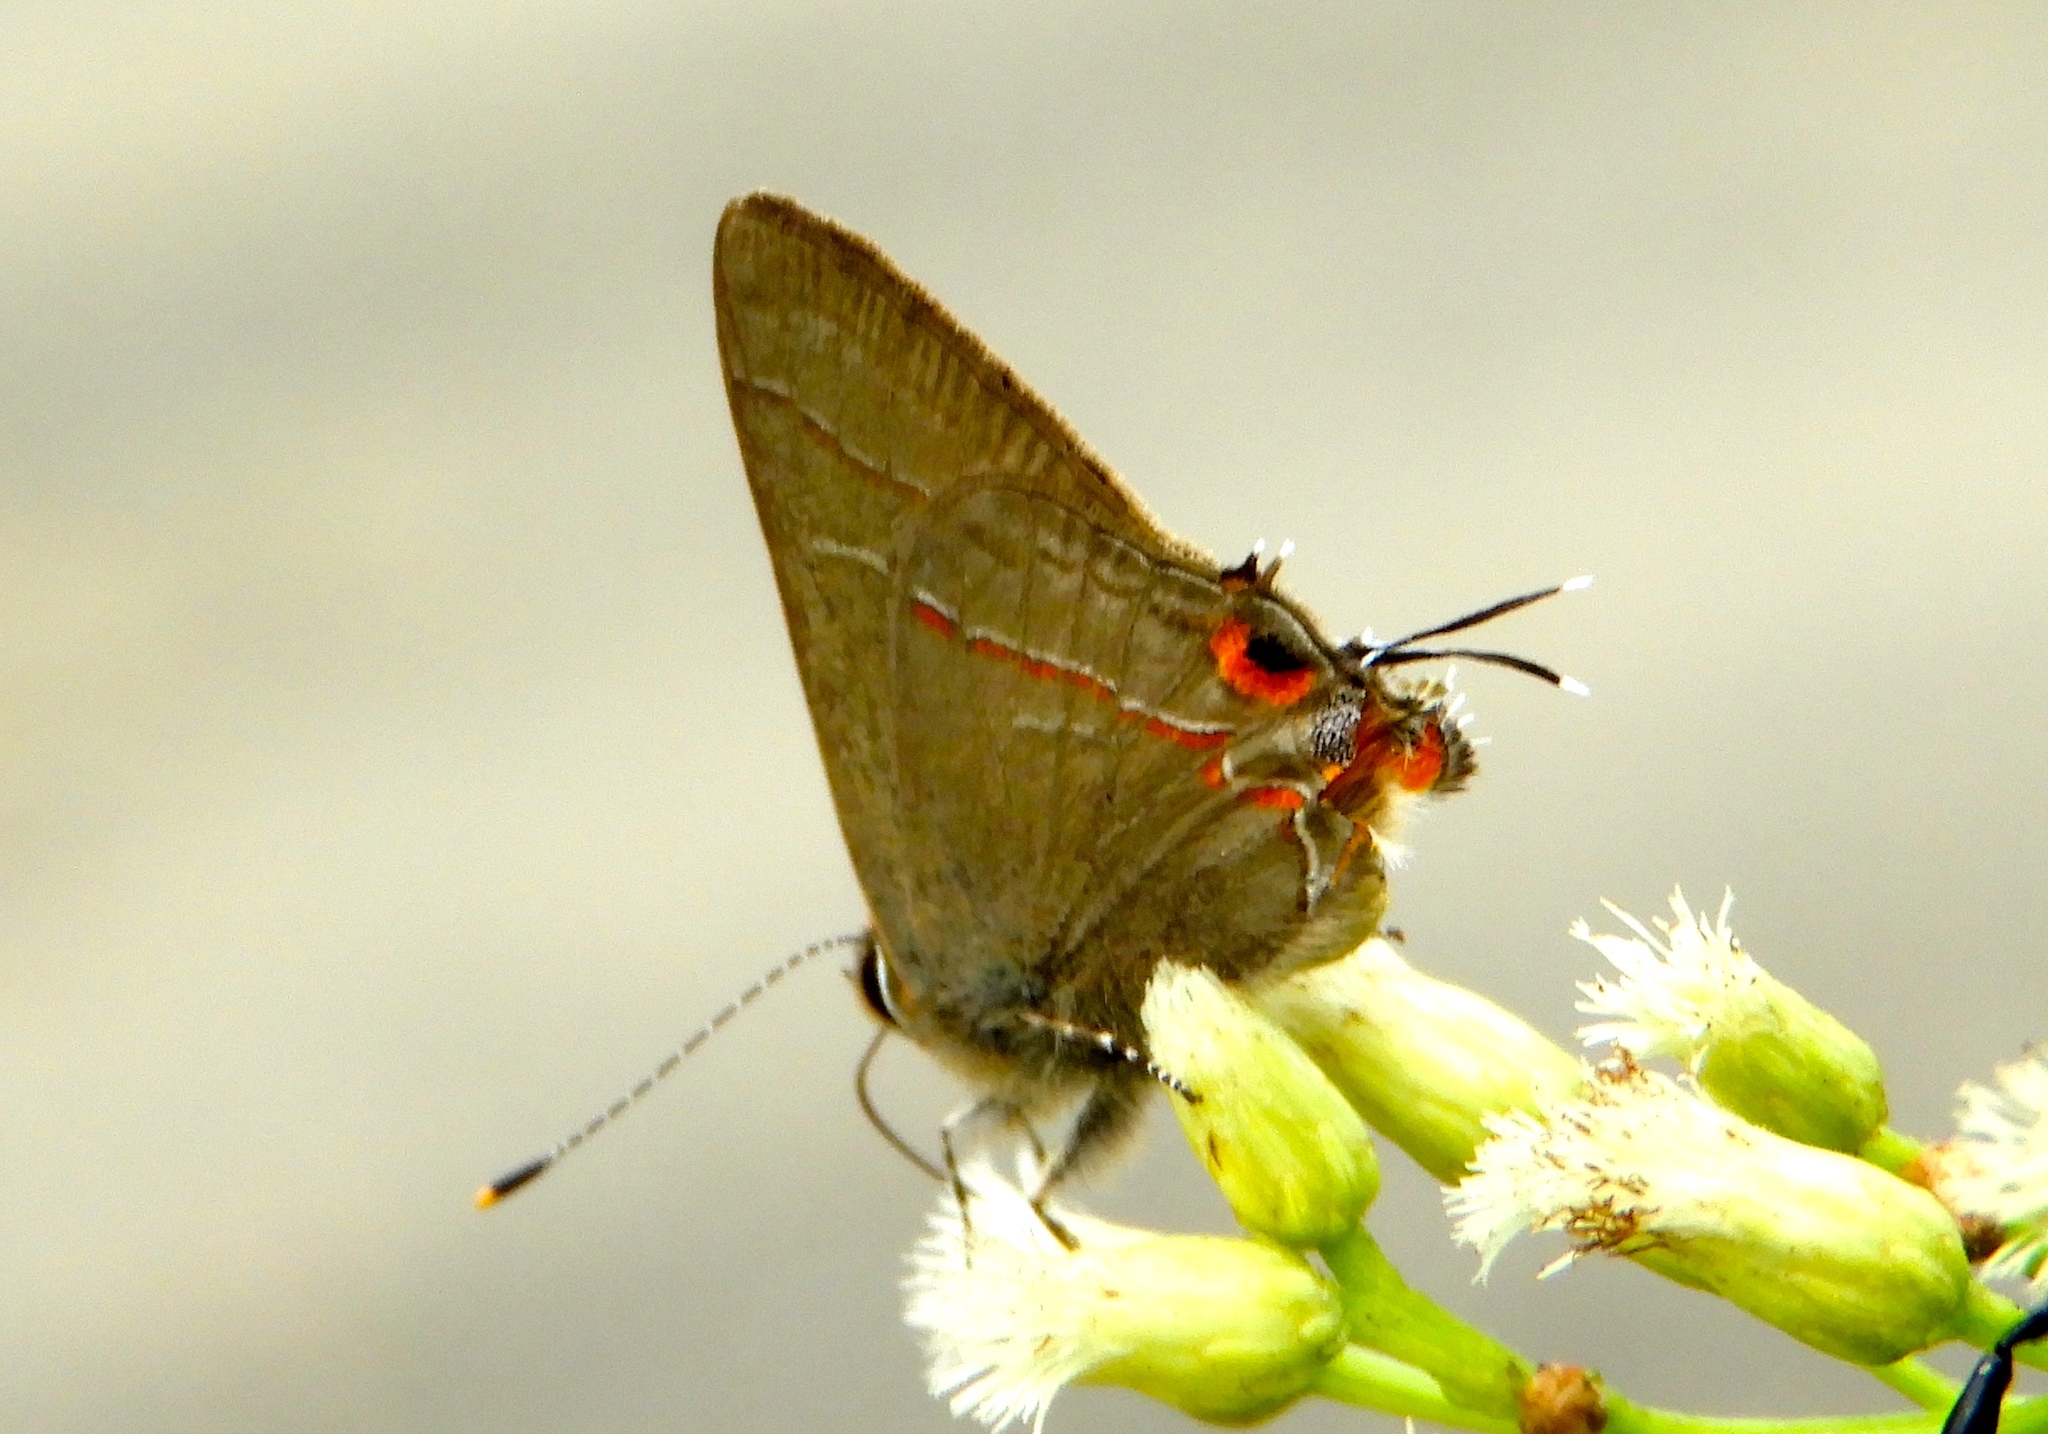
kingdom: Animalia
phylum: Arthropoda
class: Insecta
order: Lepidoptera
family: Lycaenidae
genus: Electrostrymon
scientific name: Electrostrymon endymion
